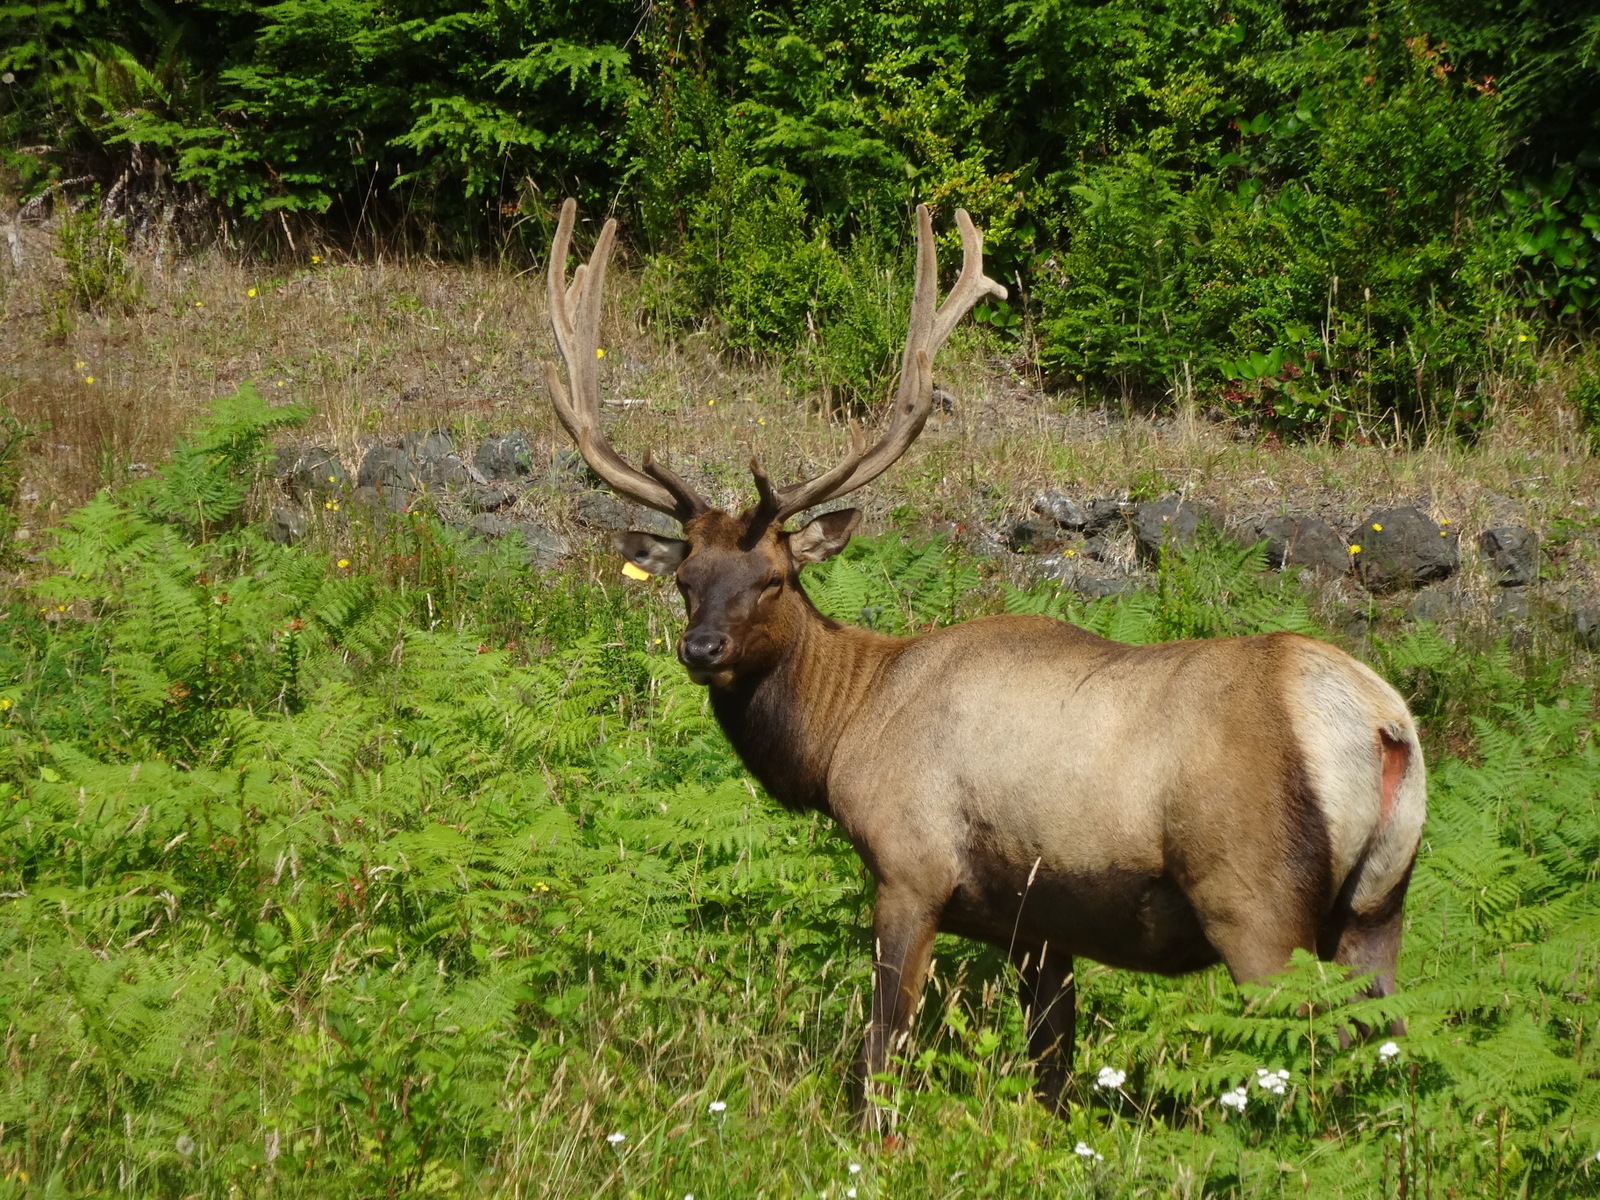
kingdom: Animalia
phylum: Chordata
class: Mammalia
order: Artiodactyla
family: Cervidae
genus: Cervus
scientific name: Cervus elaphus
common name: Red deer
